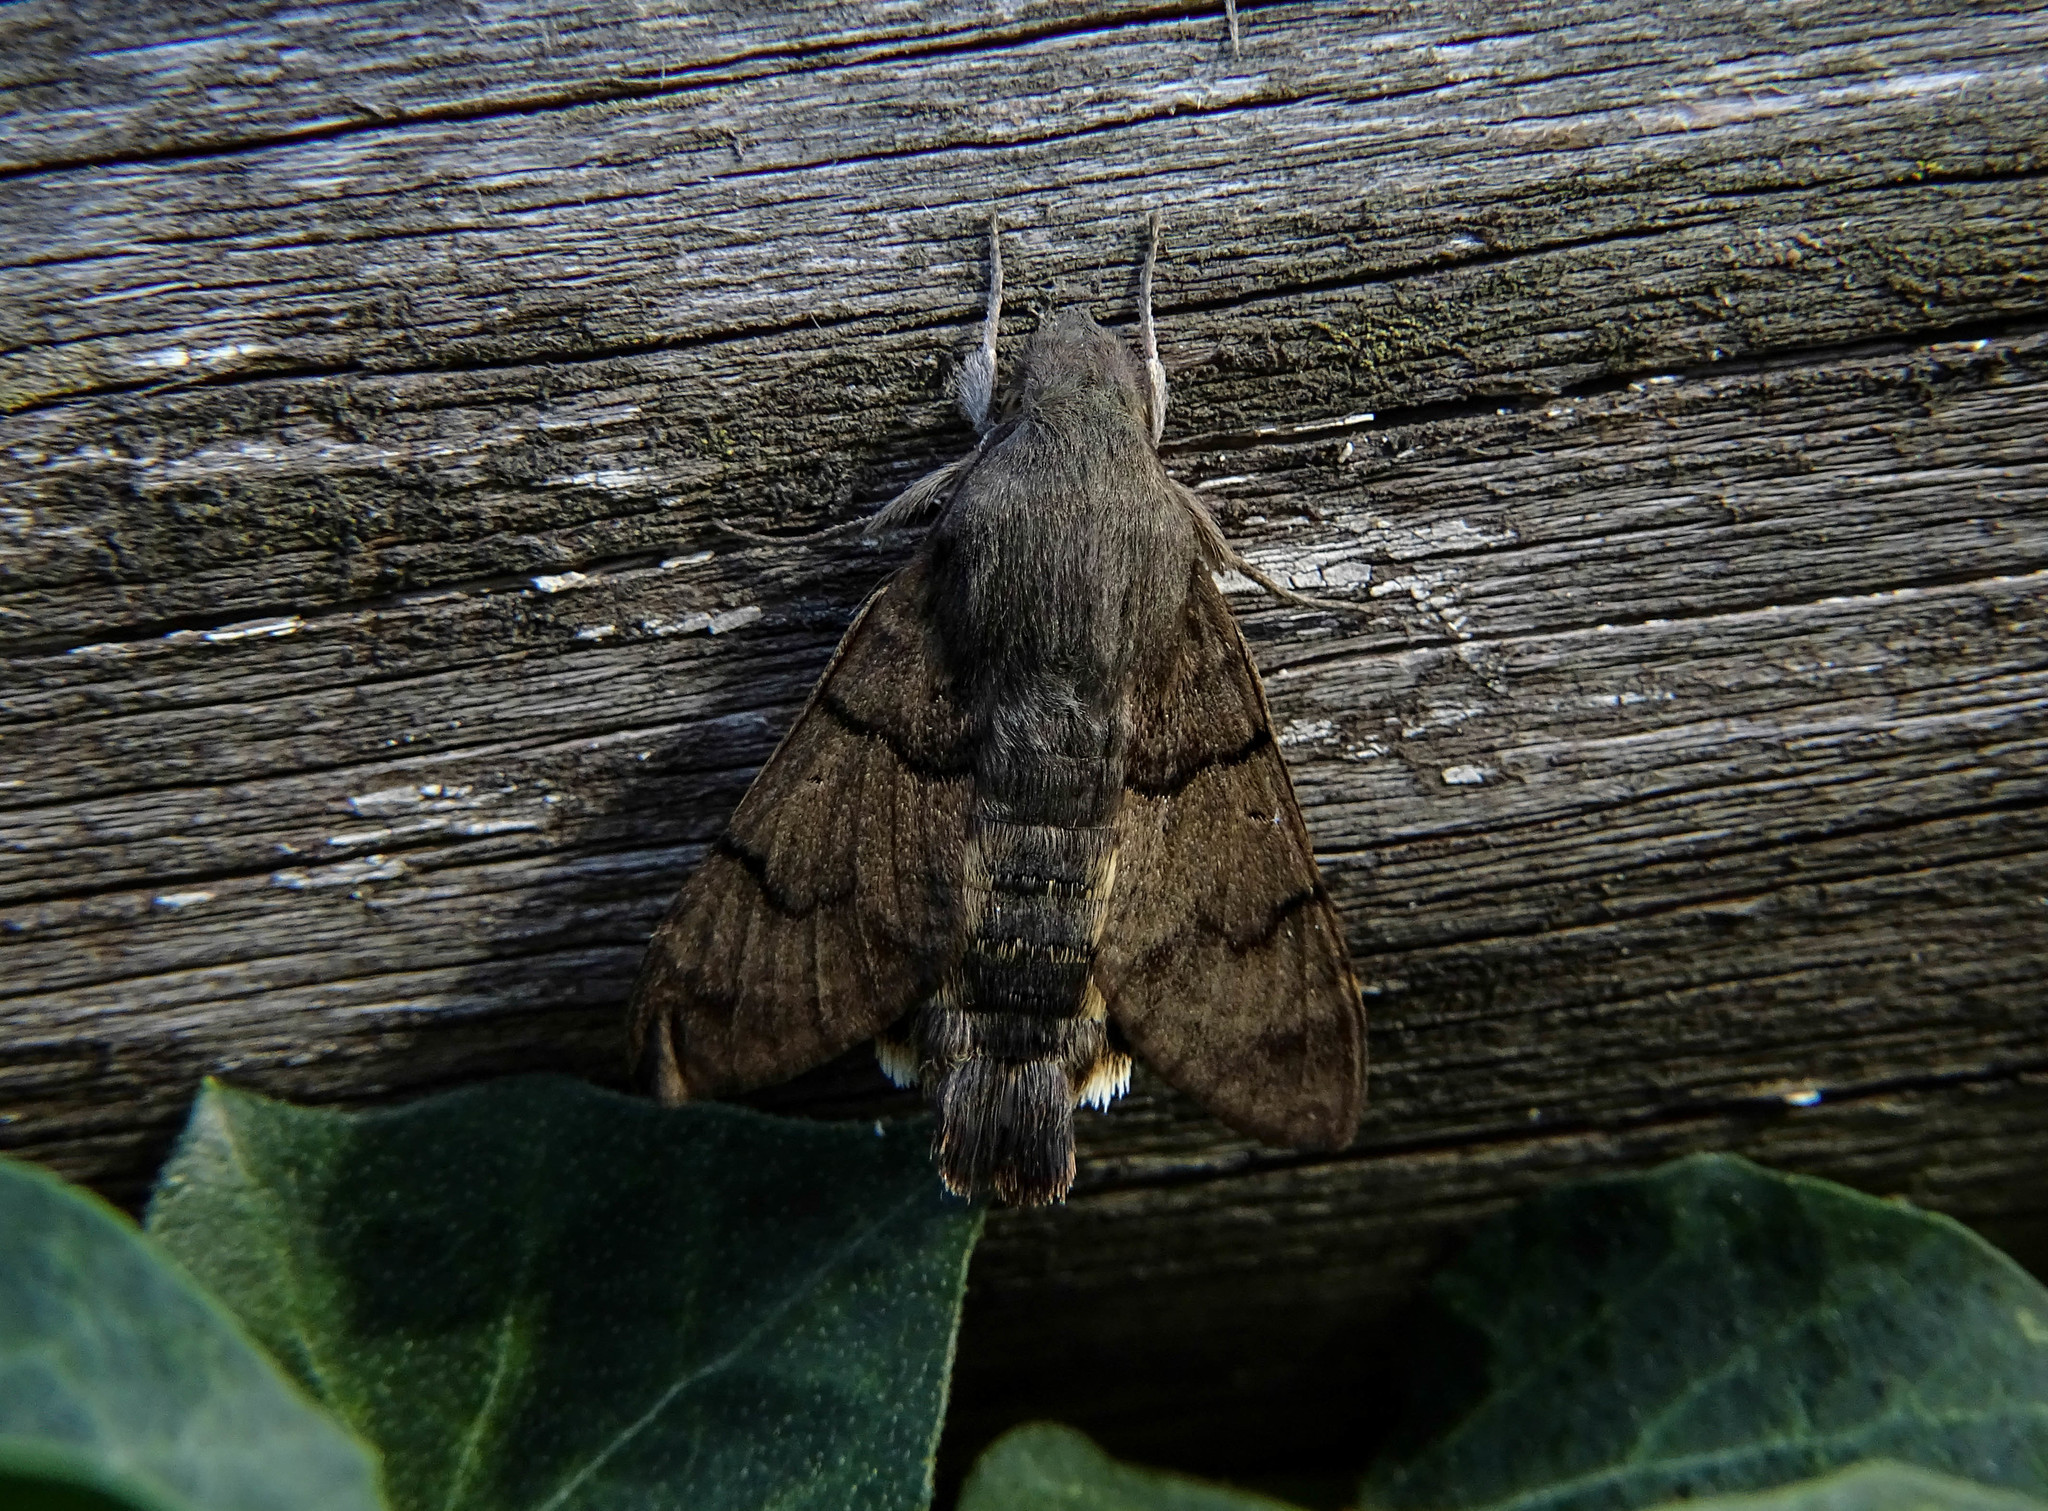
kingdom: Animalia
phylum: Arthropoda
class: Insecta
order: Lepidoptera
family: Sphingidae
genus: Macroglossum
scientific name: Macroglossum stellatarum
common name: Humming-bird hawk-moth
